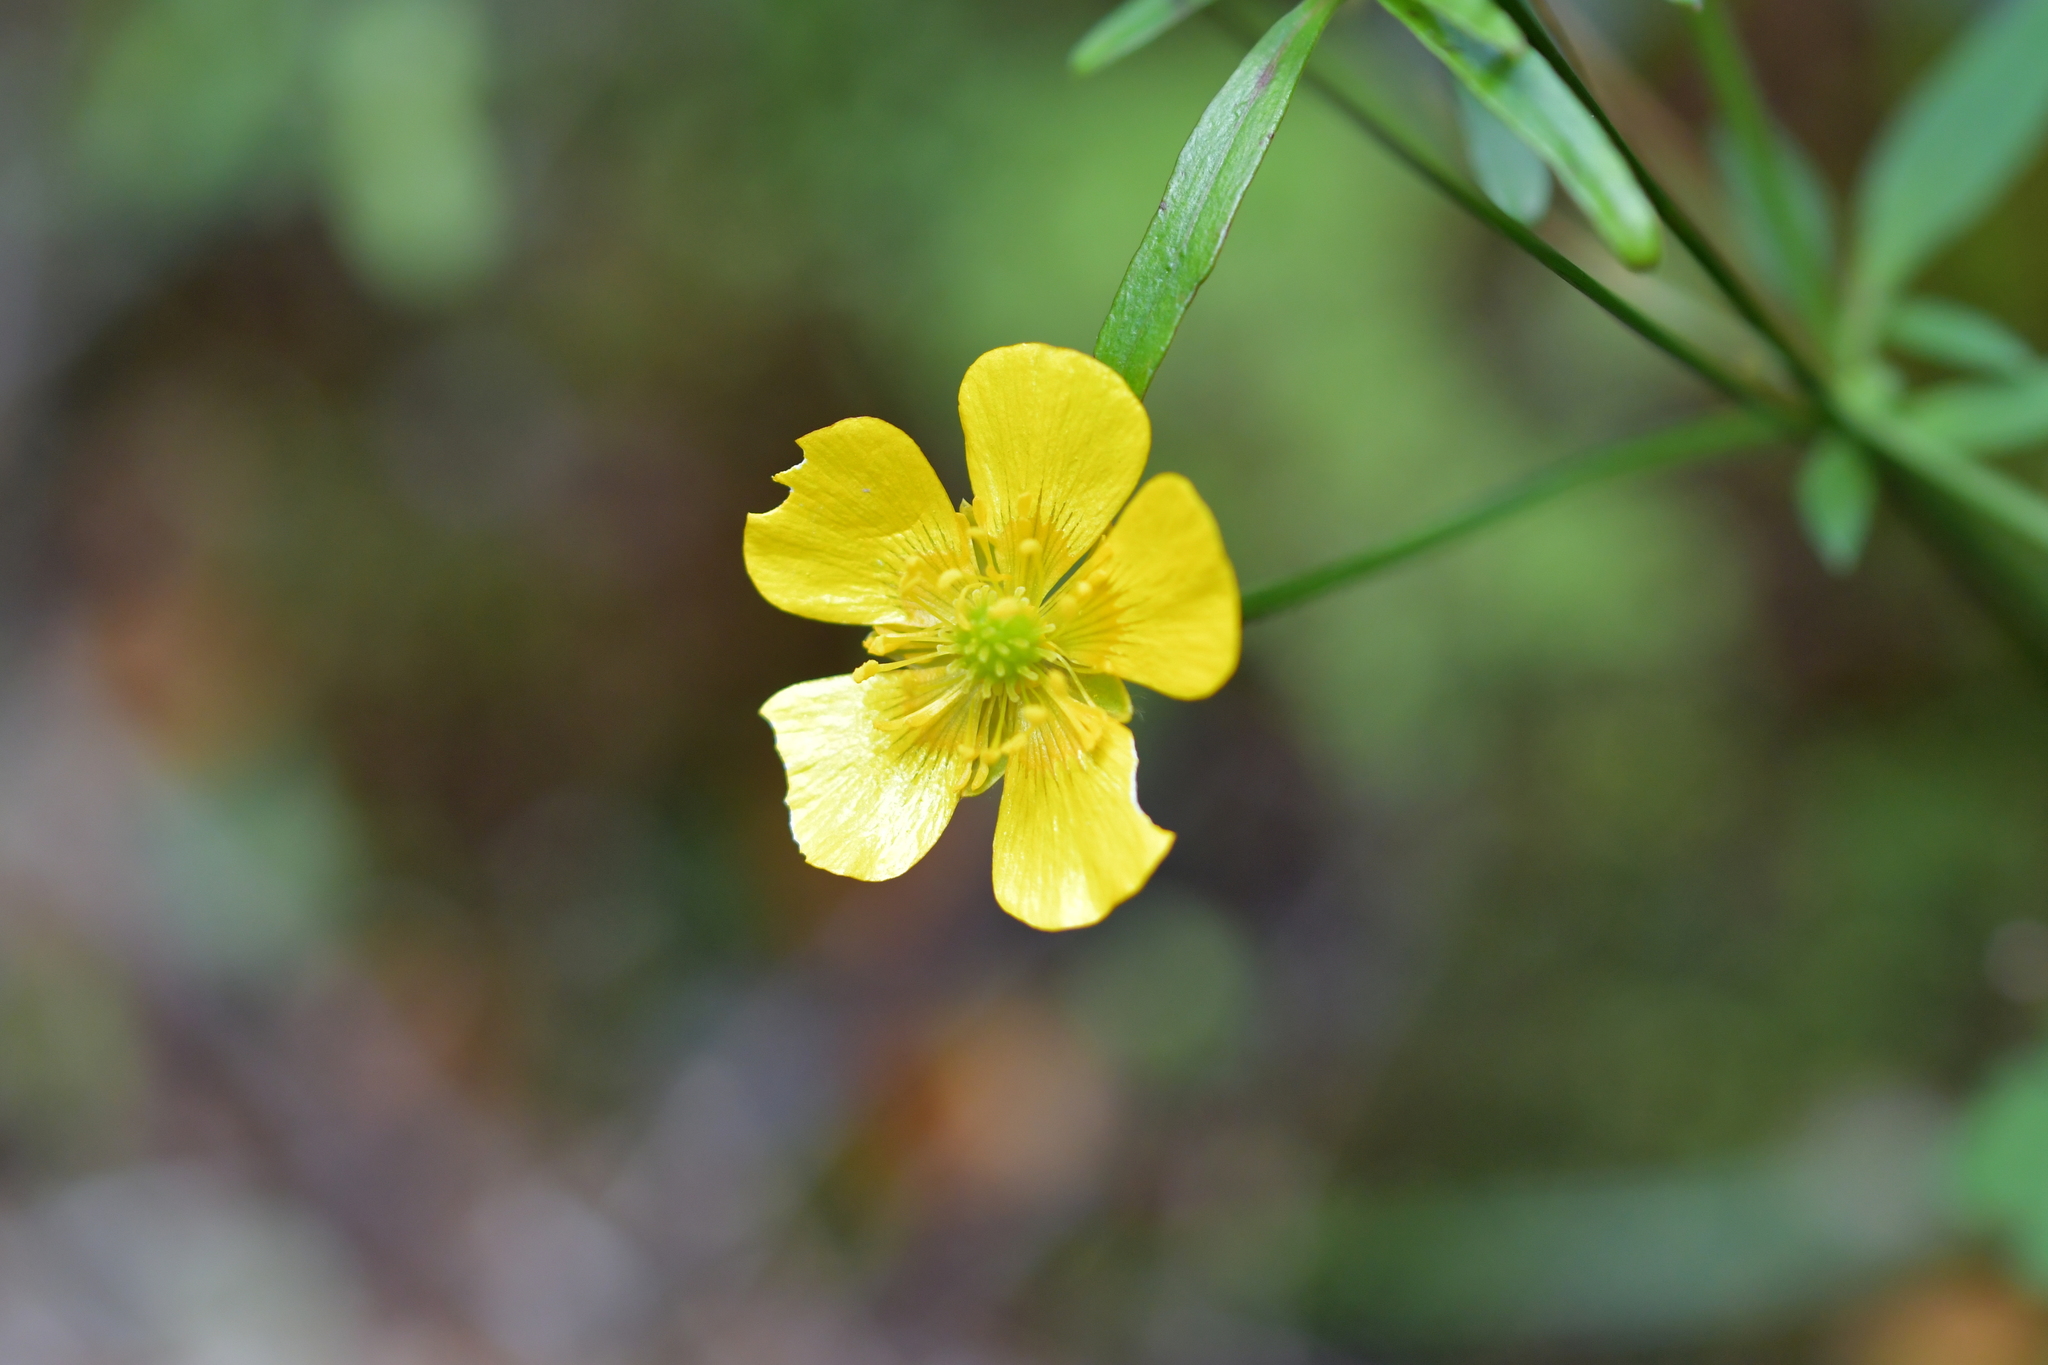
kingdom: Plantae
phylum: Tracheophyta
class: Magnoliopsida
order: Ranunculales
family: Ranunculaceae
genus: Ranunculus
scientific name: Ranunculus acris
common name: Meadow buttercup
